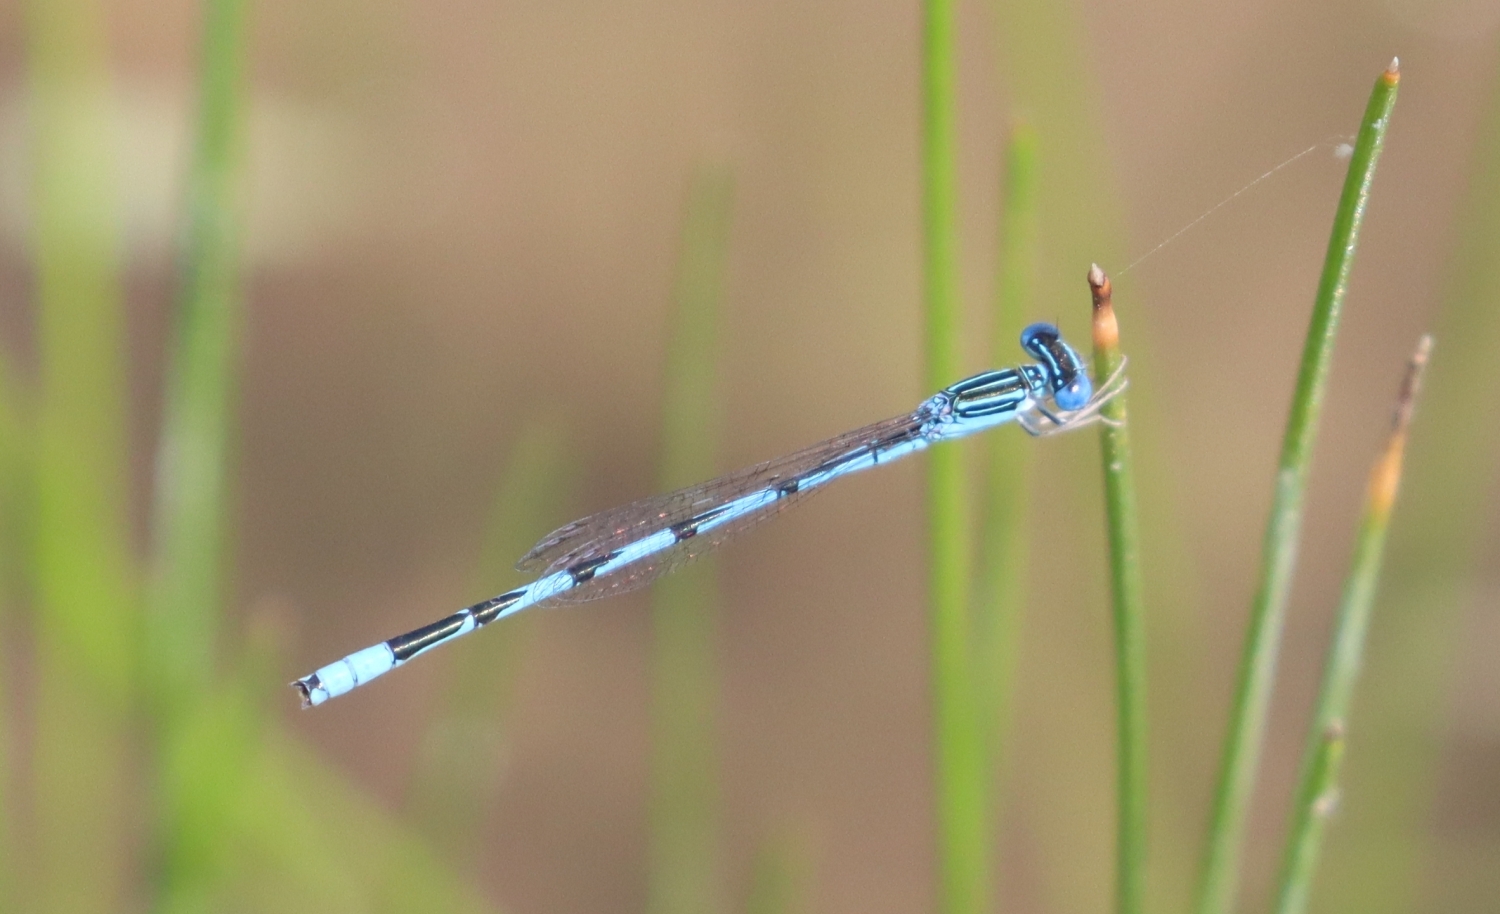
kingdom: Animalia
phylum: Arthropoda
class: Insecta
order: Odonata
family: Coenagrionidae
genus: Enallagma
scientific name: Enallagma basidens
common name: Double-striped bluet
